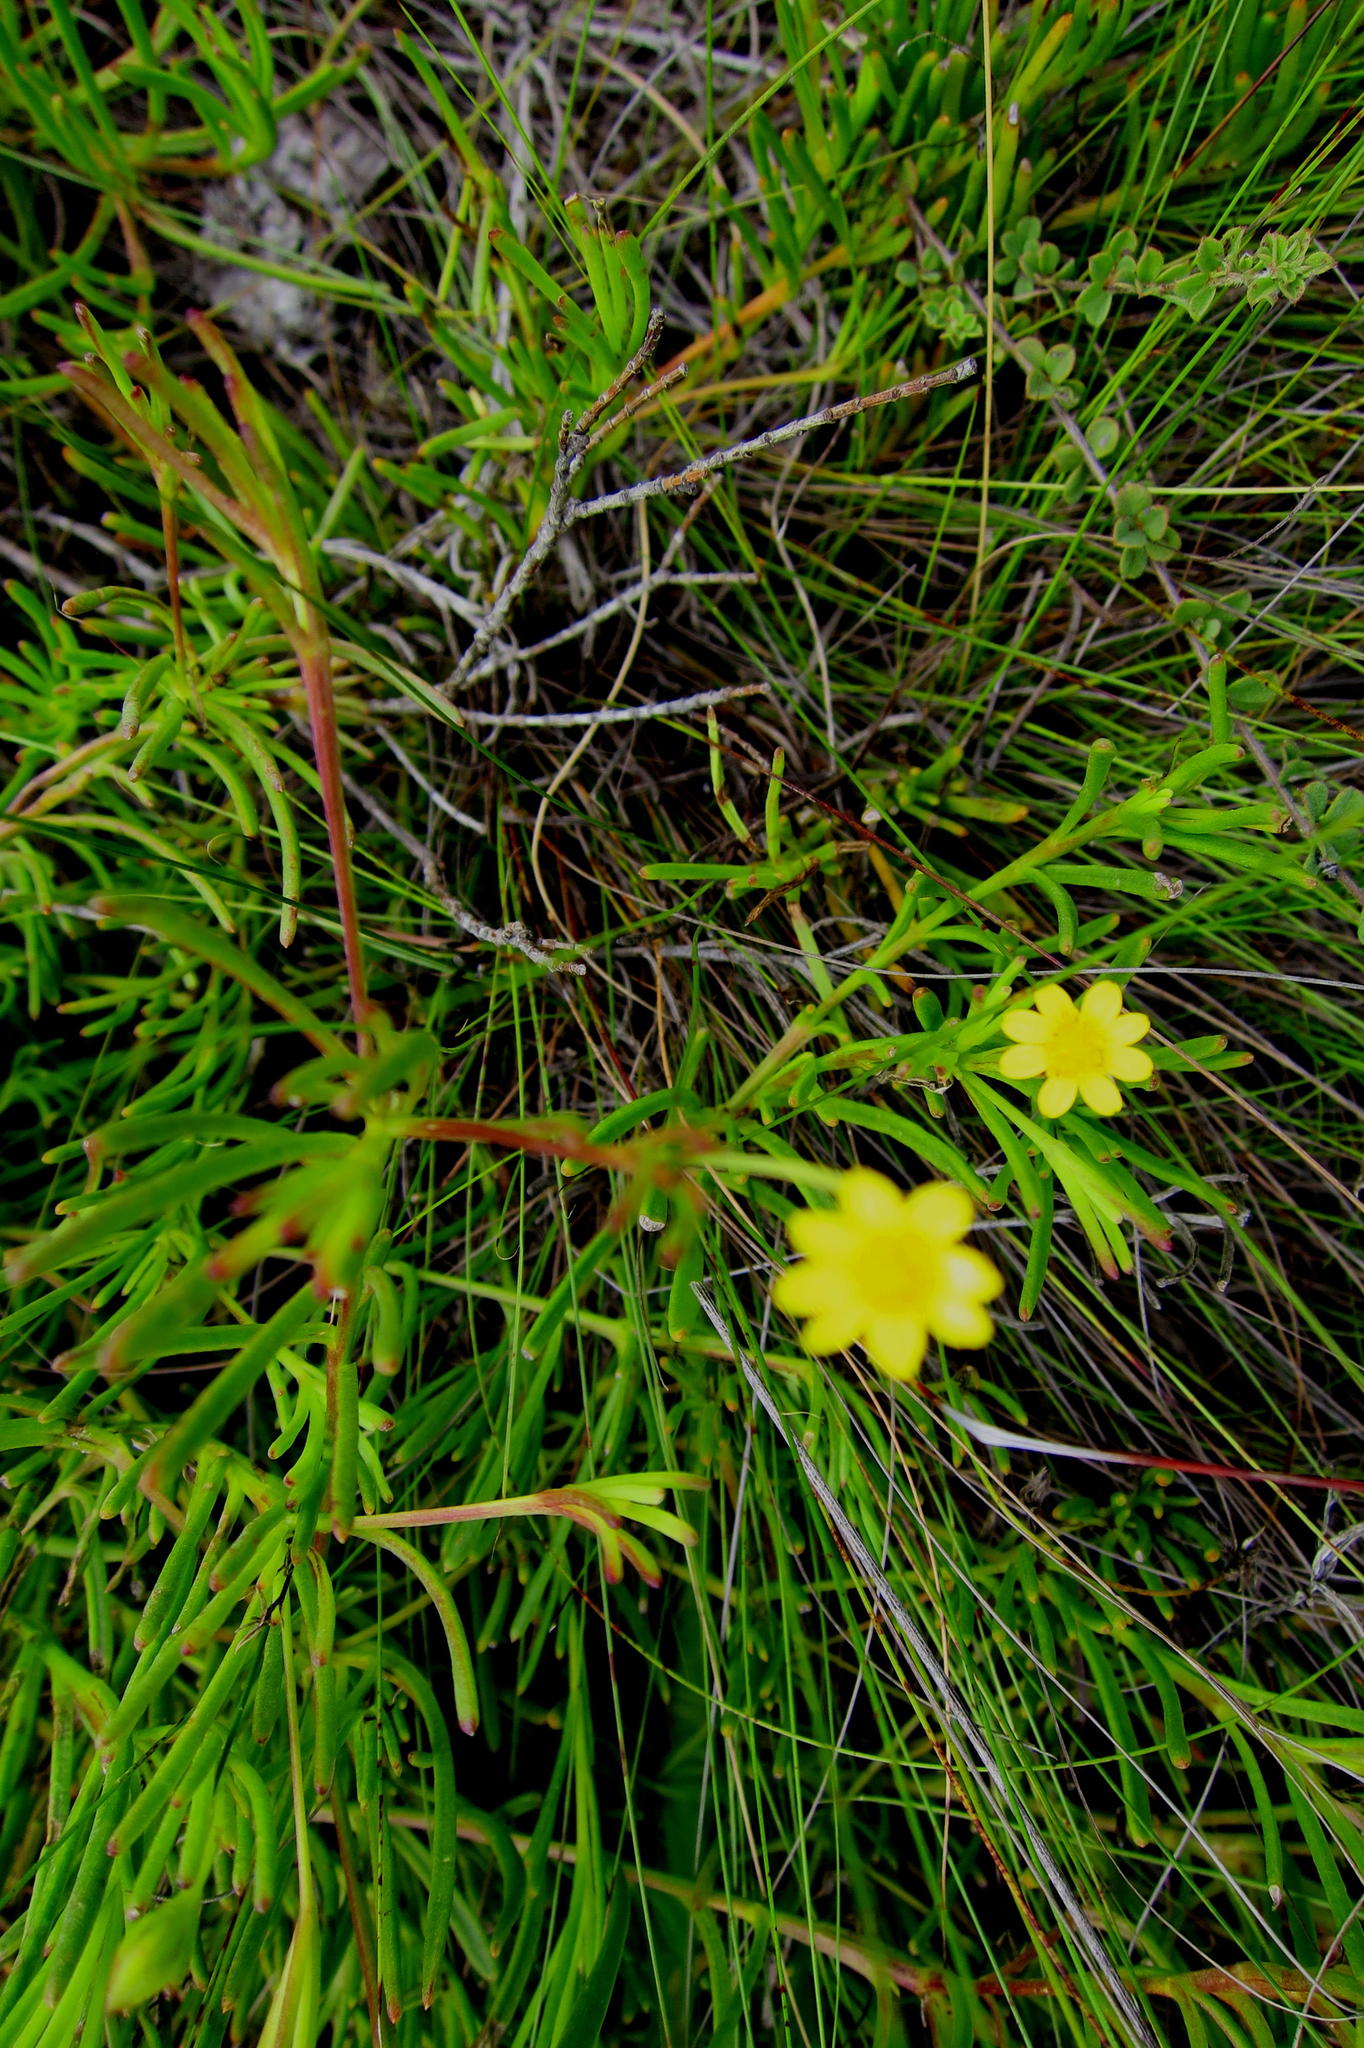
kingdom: Plantae
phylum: Tracheophyta
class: Magnoliopsida
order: Asterales
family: Asteraceae
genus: Osteospermum
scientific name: Osteospermum triquetrum
